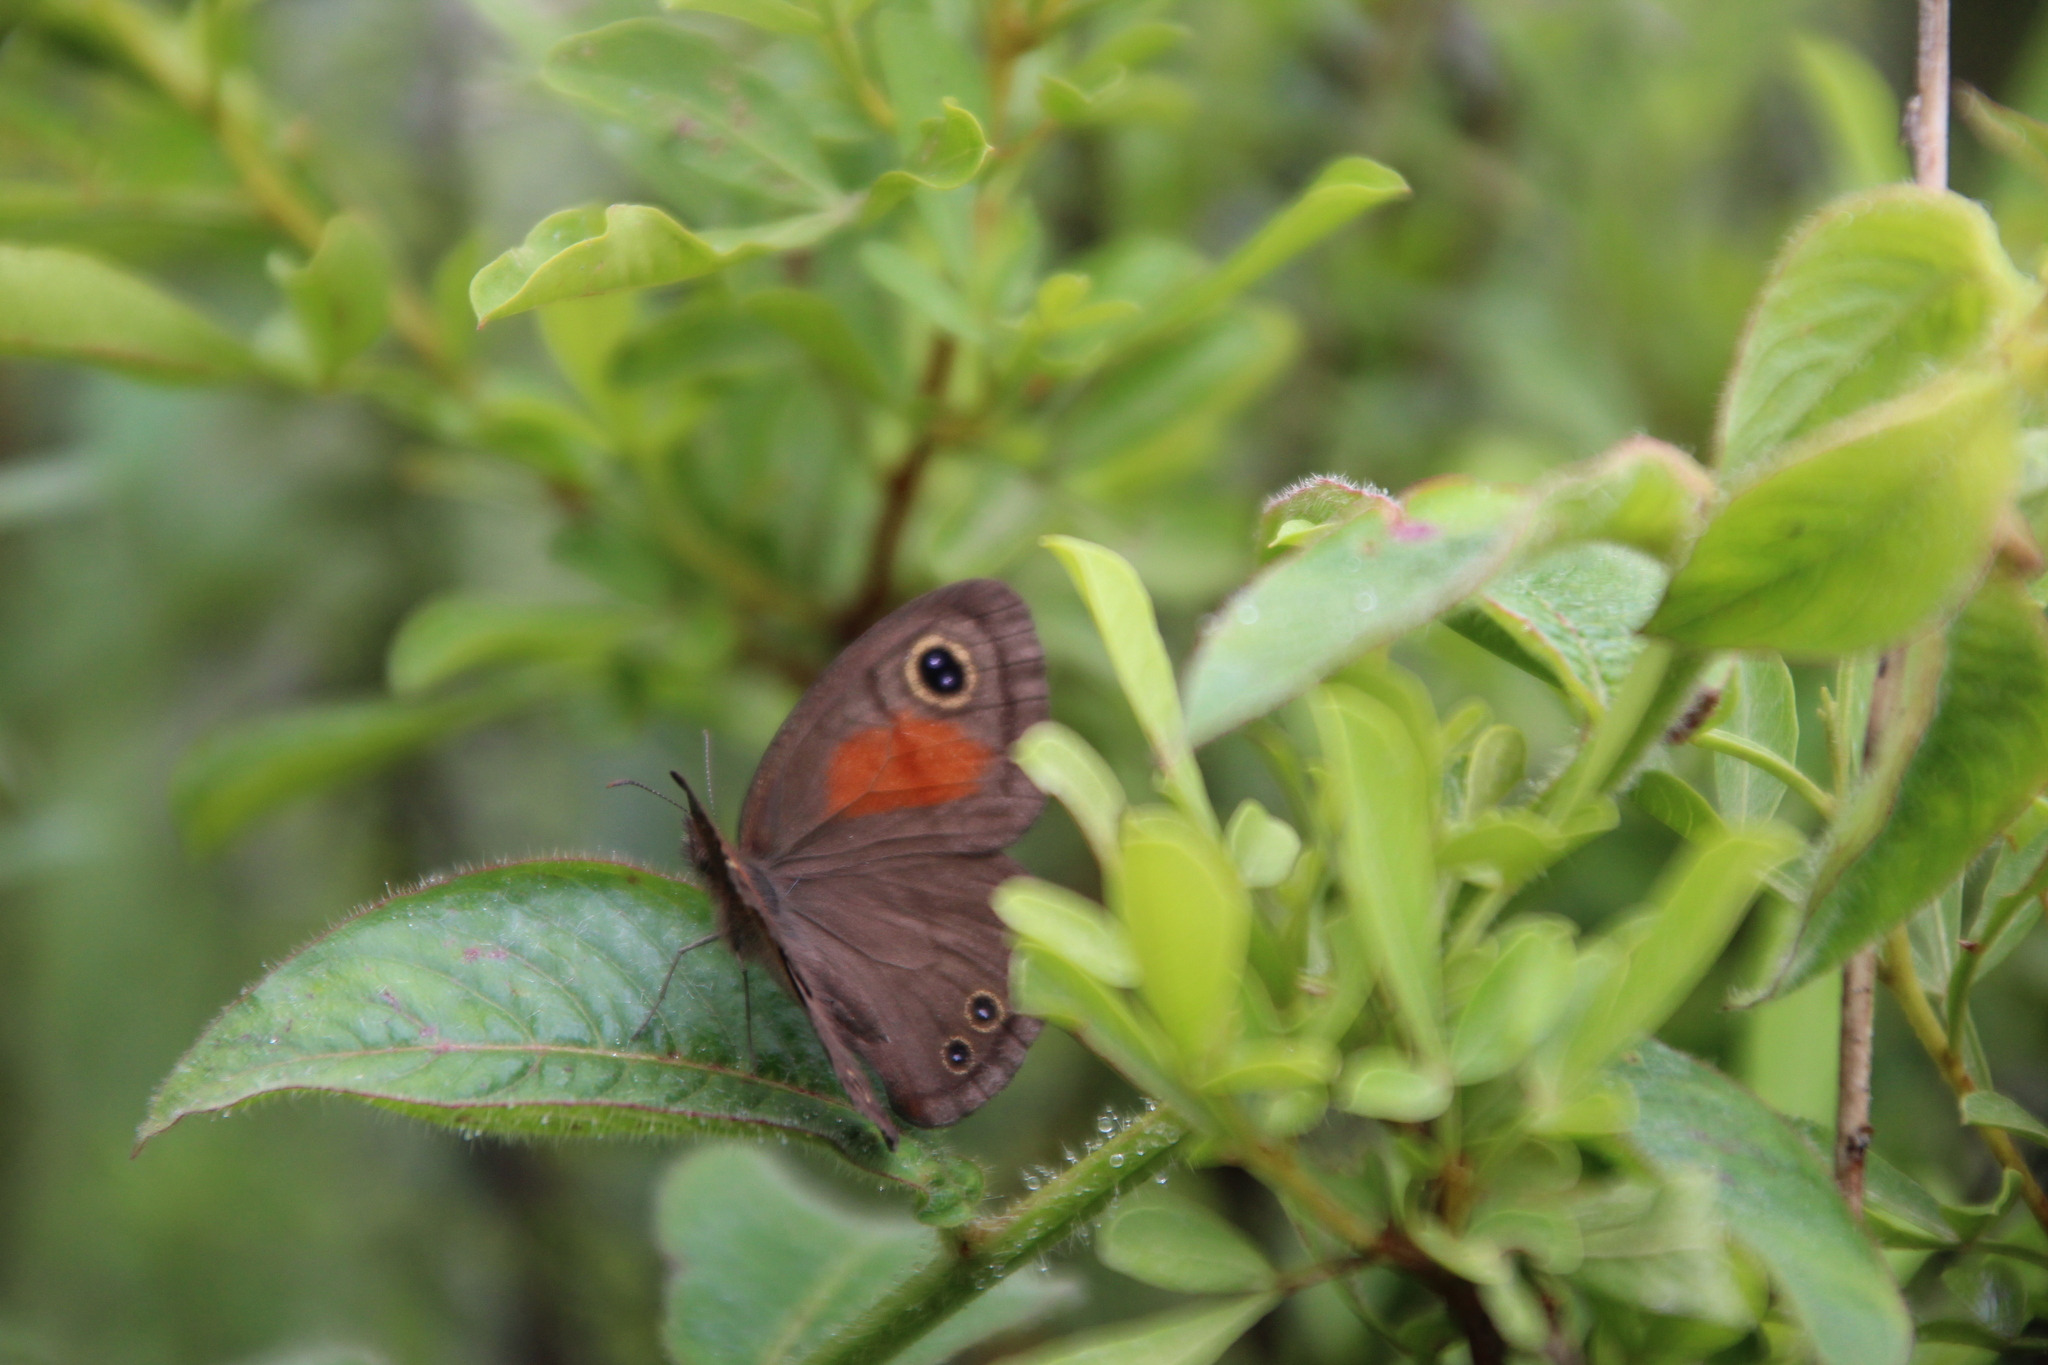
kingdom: Animalia
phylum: Arthropoda
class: Insecta
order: Lepidoptera
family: Nymphalidae
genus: Cassionympha
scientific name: Cassionympha cassius
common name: Rainforest brown
